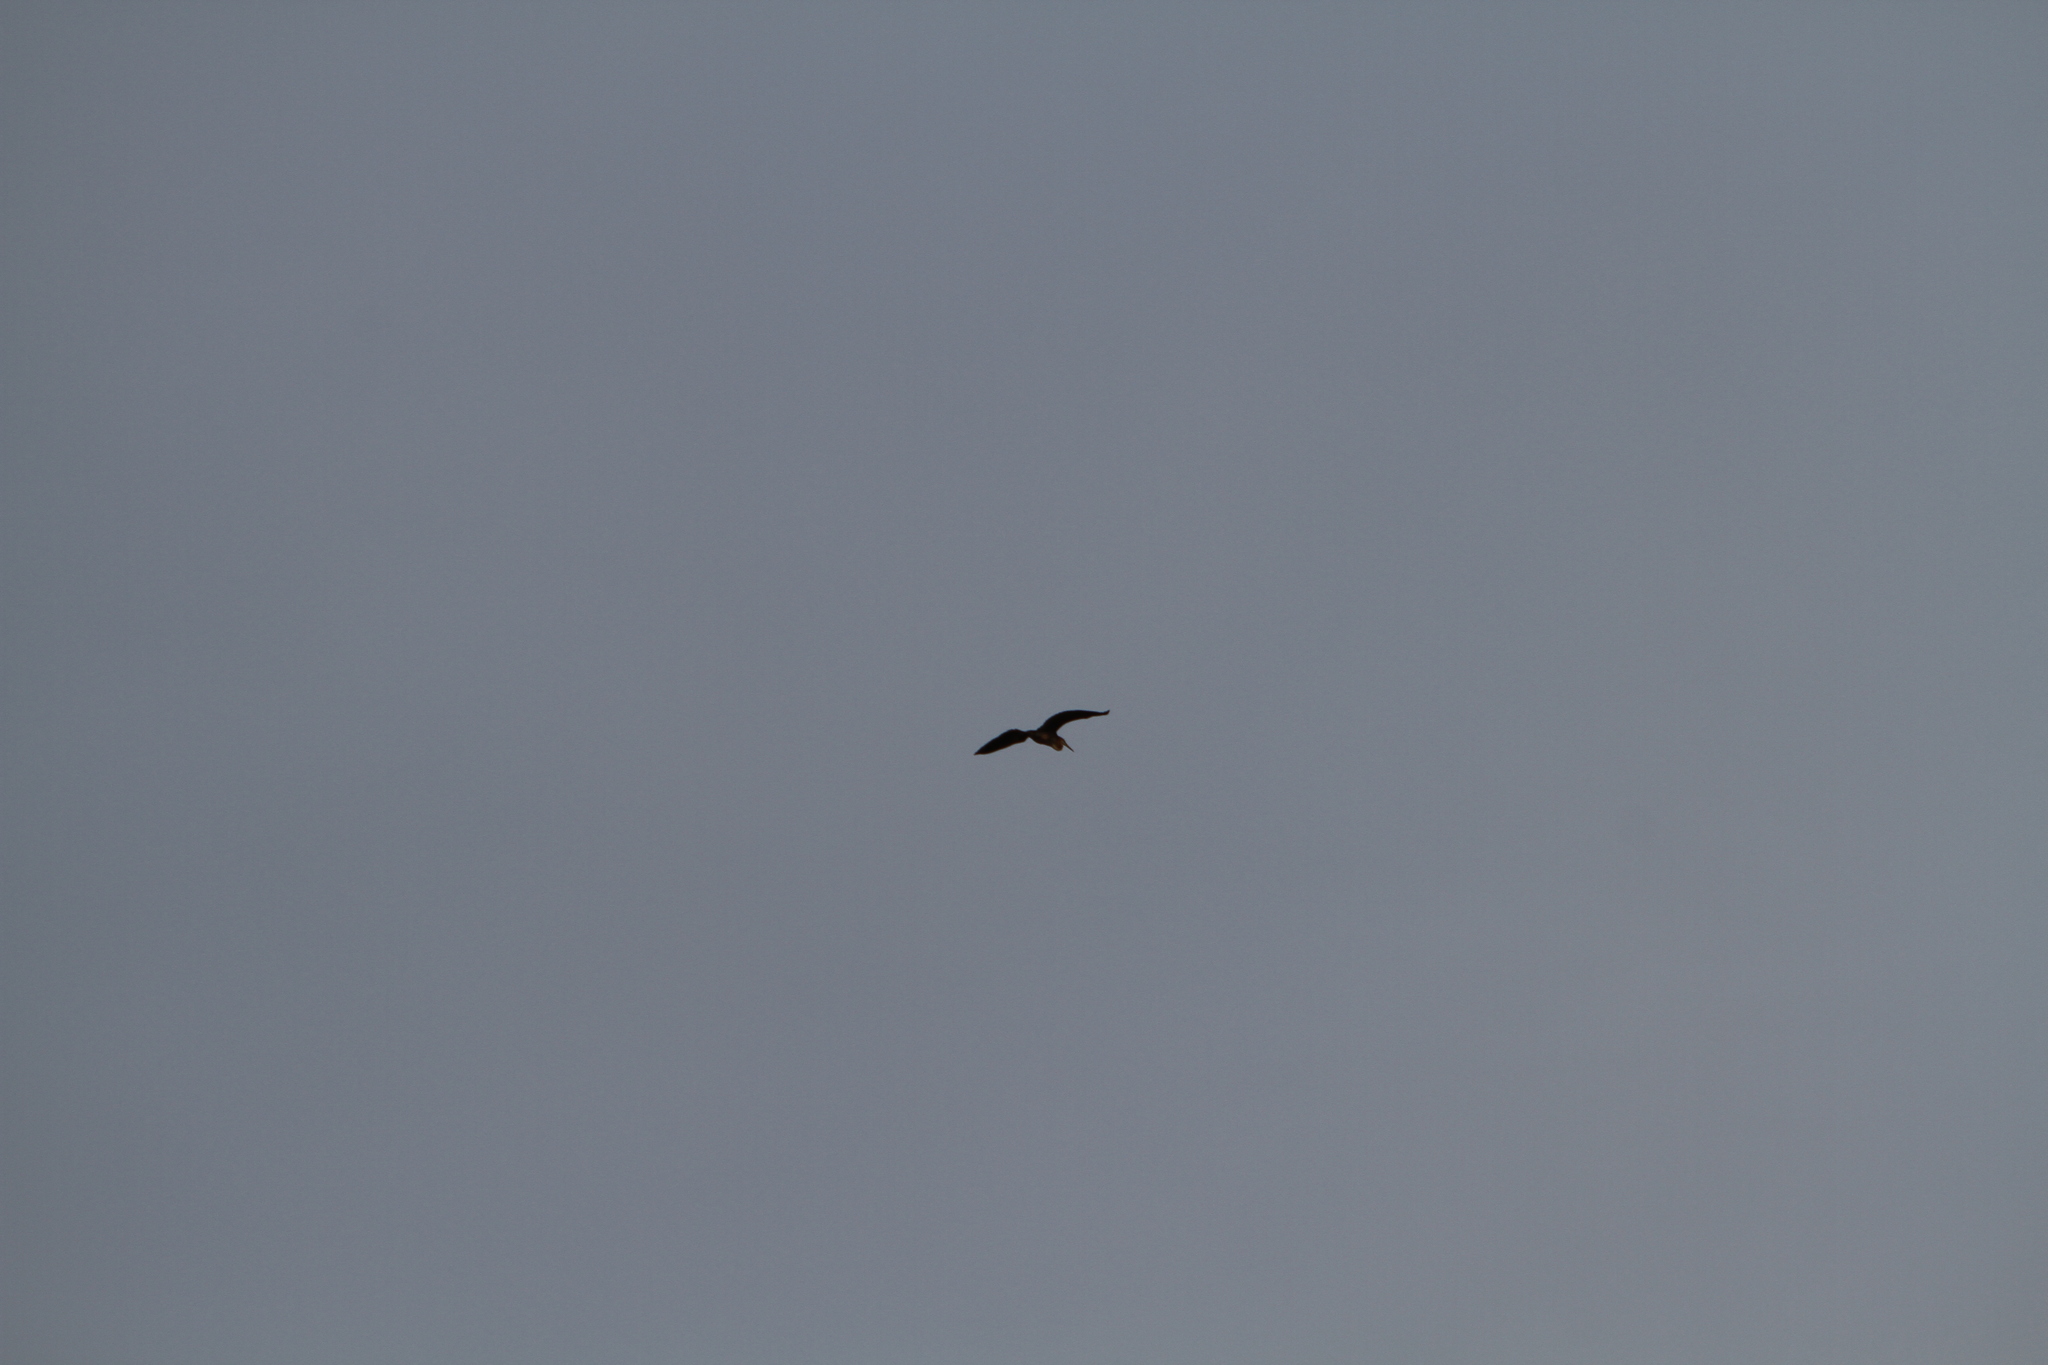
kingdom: Animalia
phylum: Chordata
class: Aves
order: Pelecaniformes
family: Ardeidae
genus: Ardea
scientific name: Ardea purpurea
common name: Purple heron
